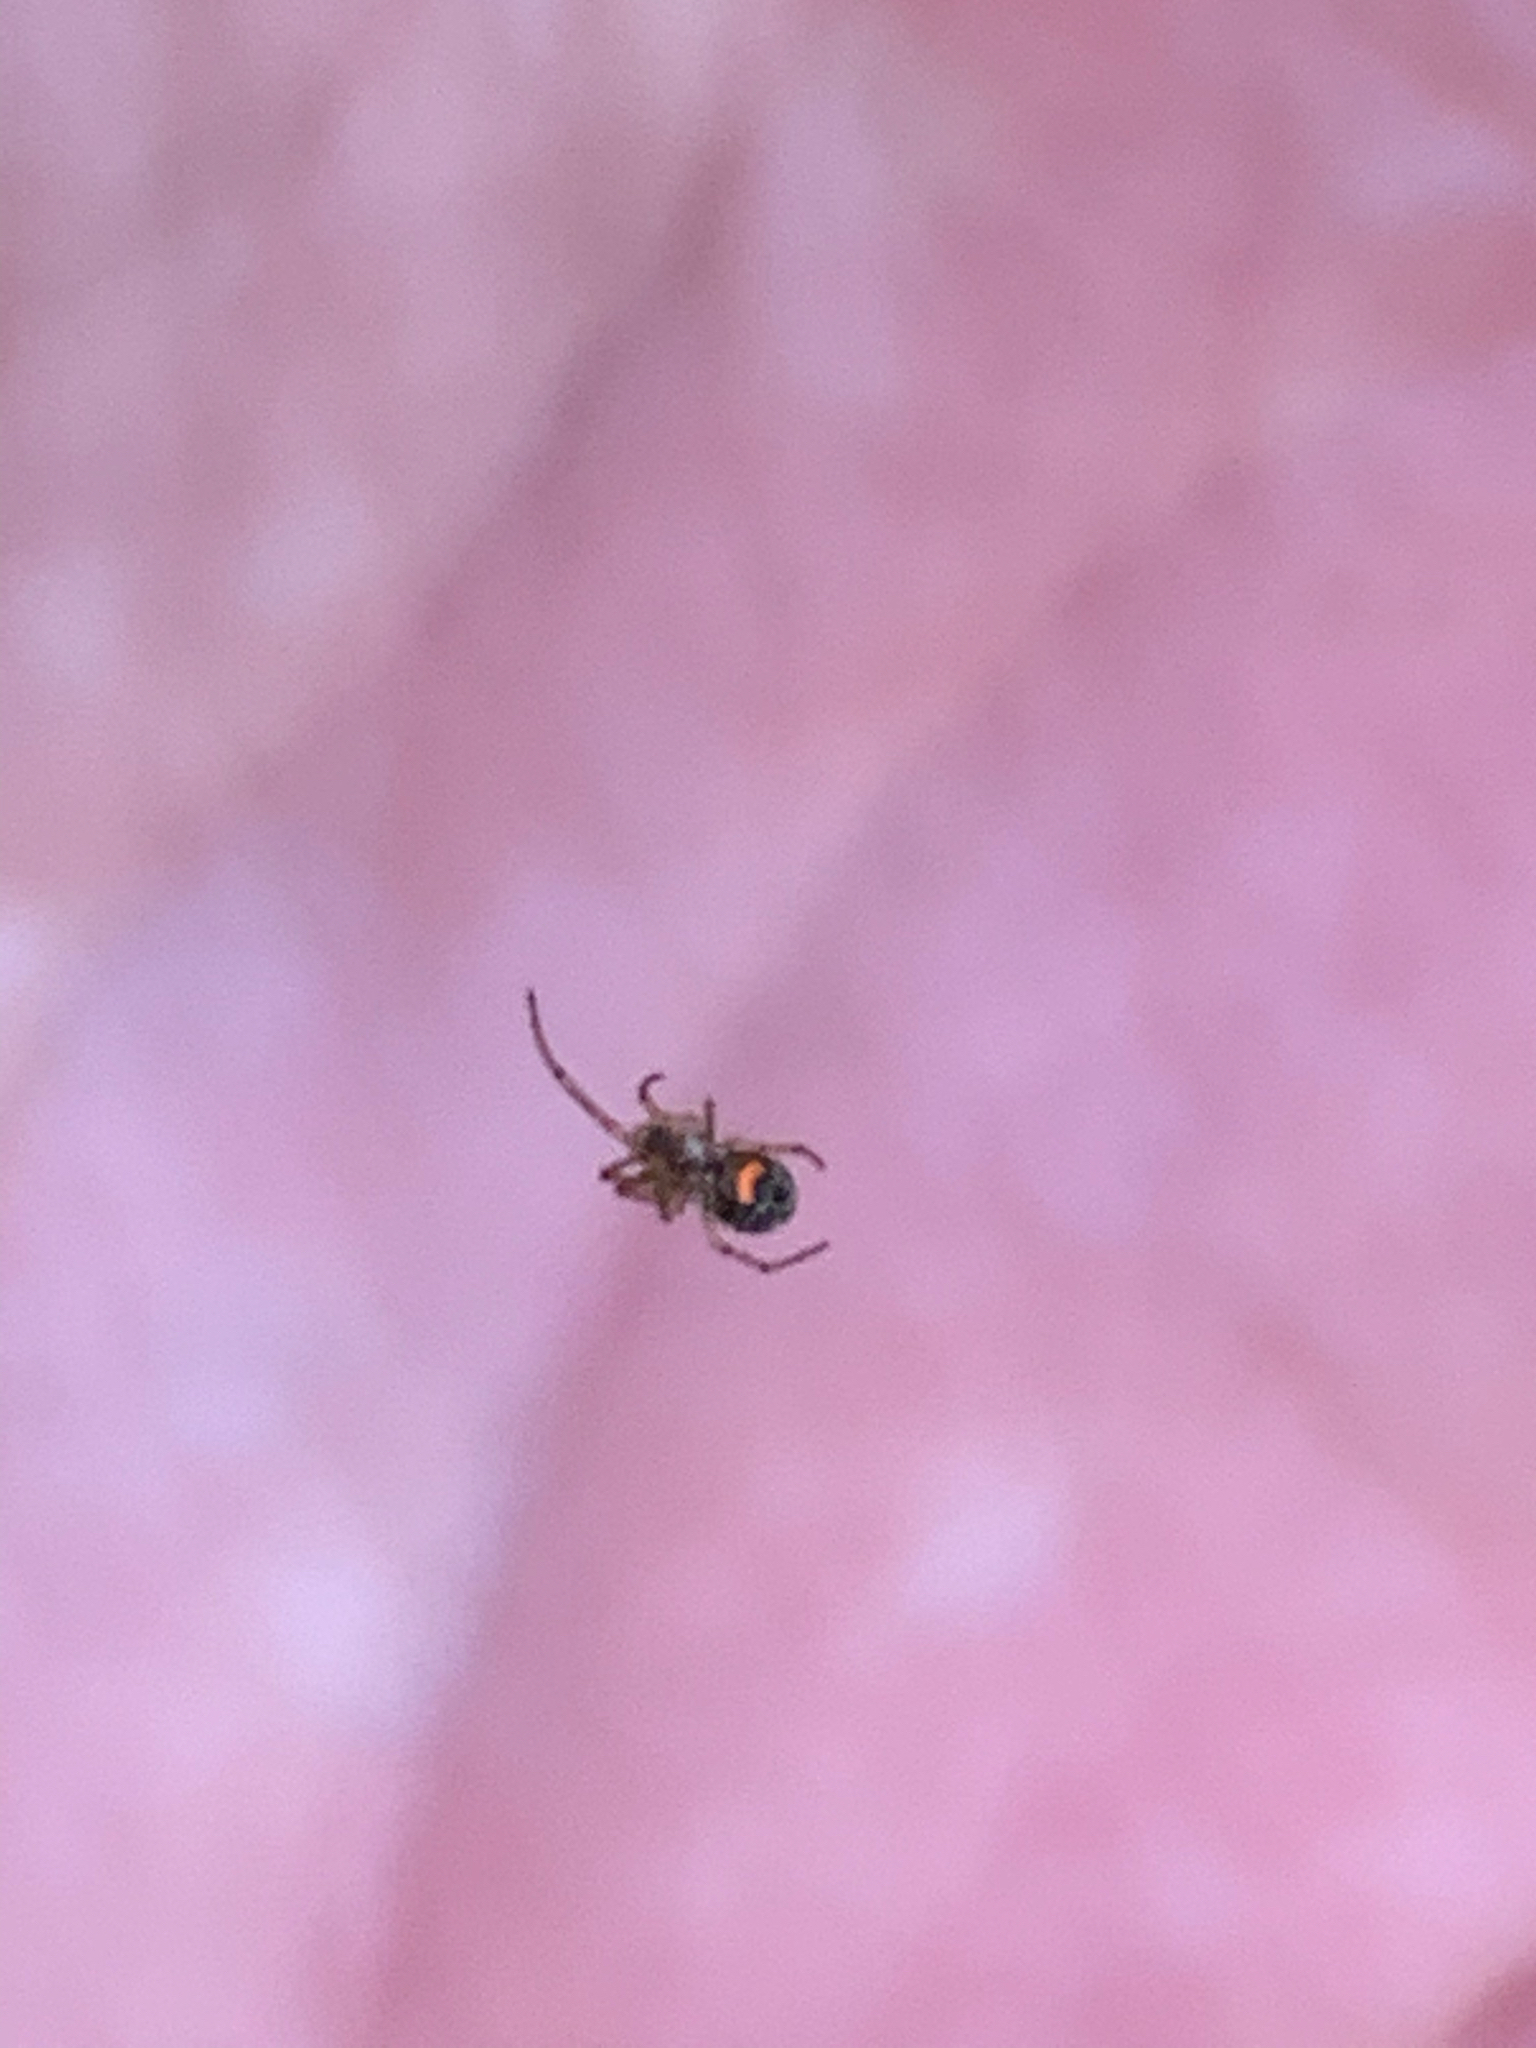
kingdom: Animalia
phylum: Arthropoda
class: Arachnida
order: Araneae
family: Tetragnathidae
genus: Leucauge
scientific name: Leucauge venusta
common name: Longjawed orb weavers
